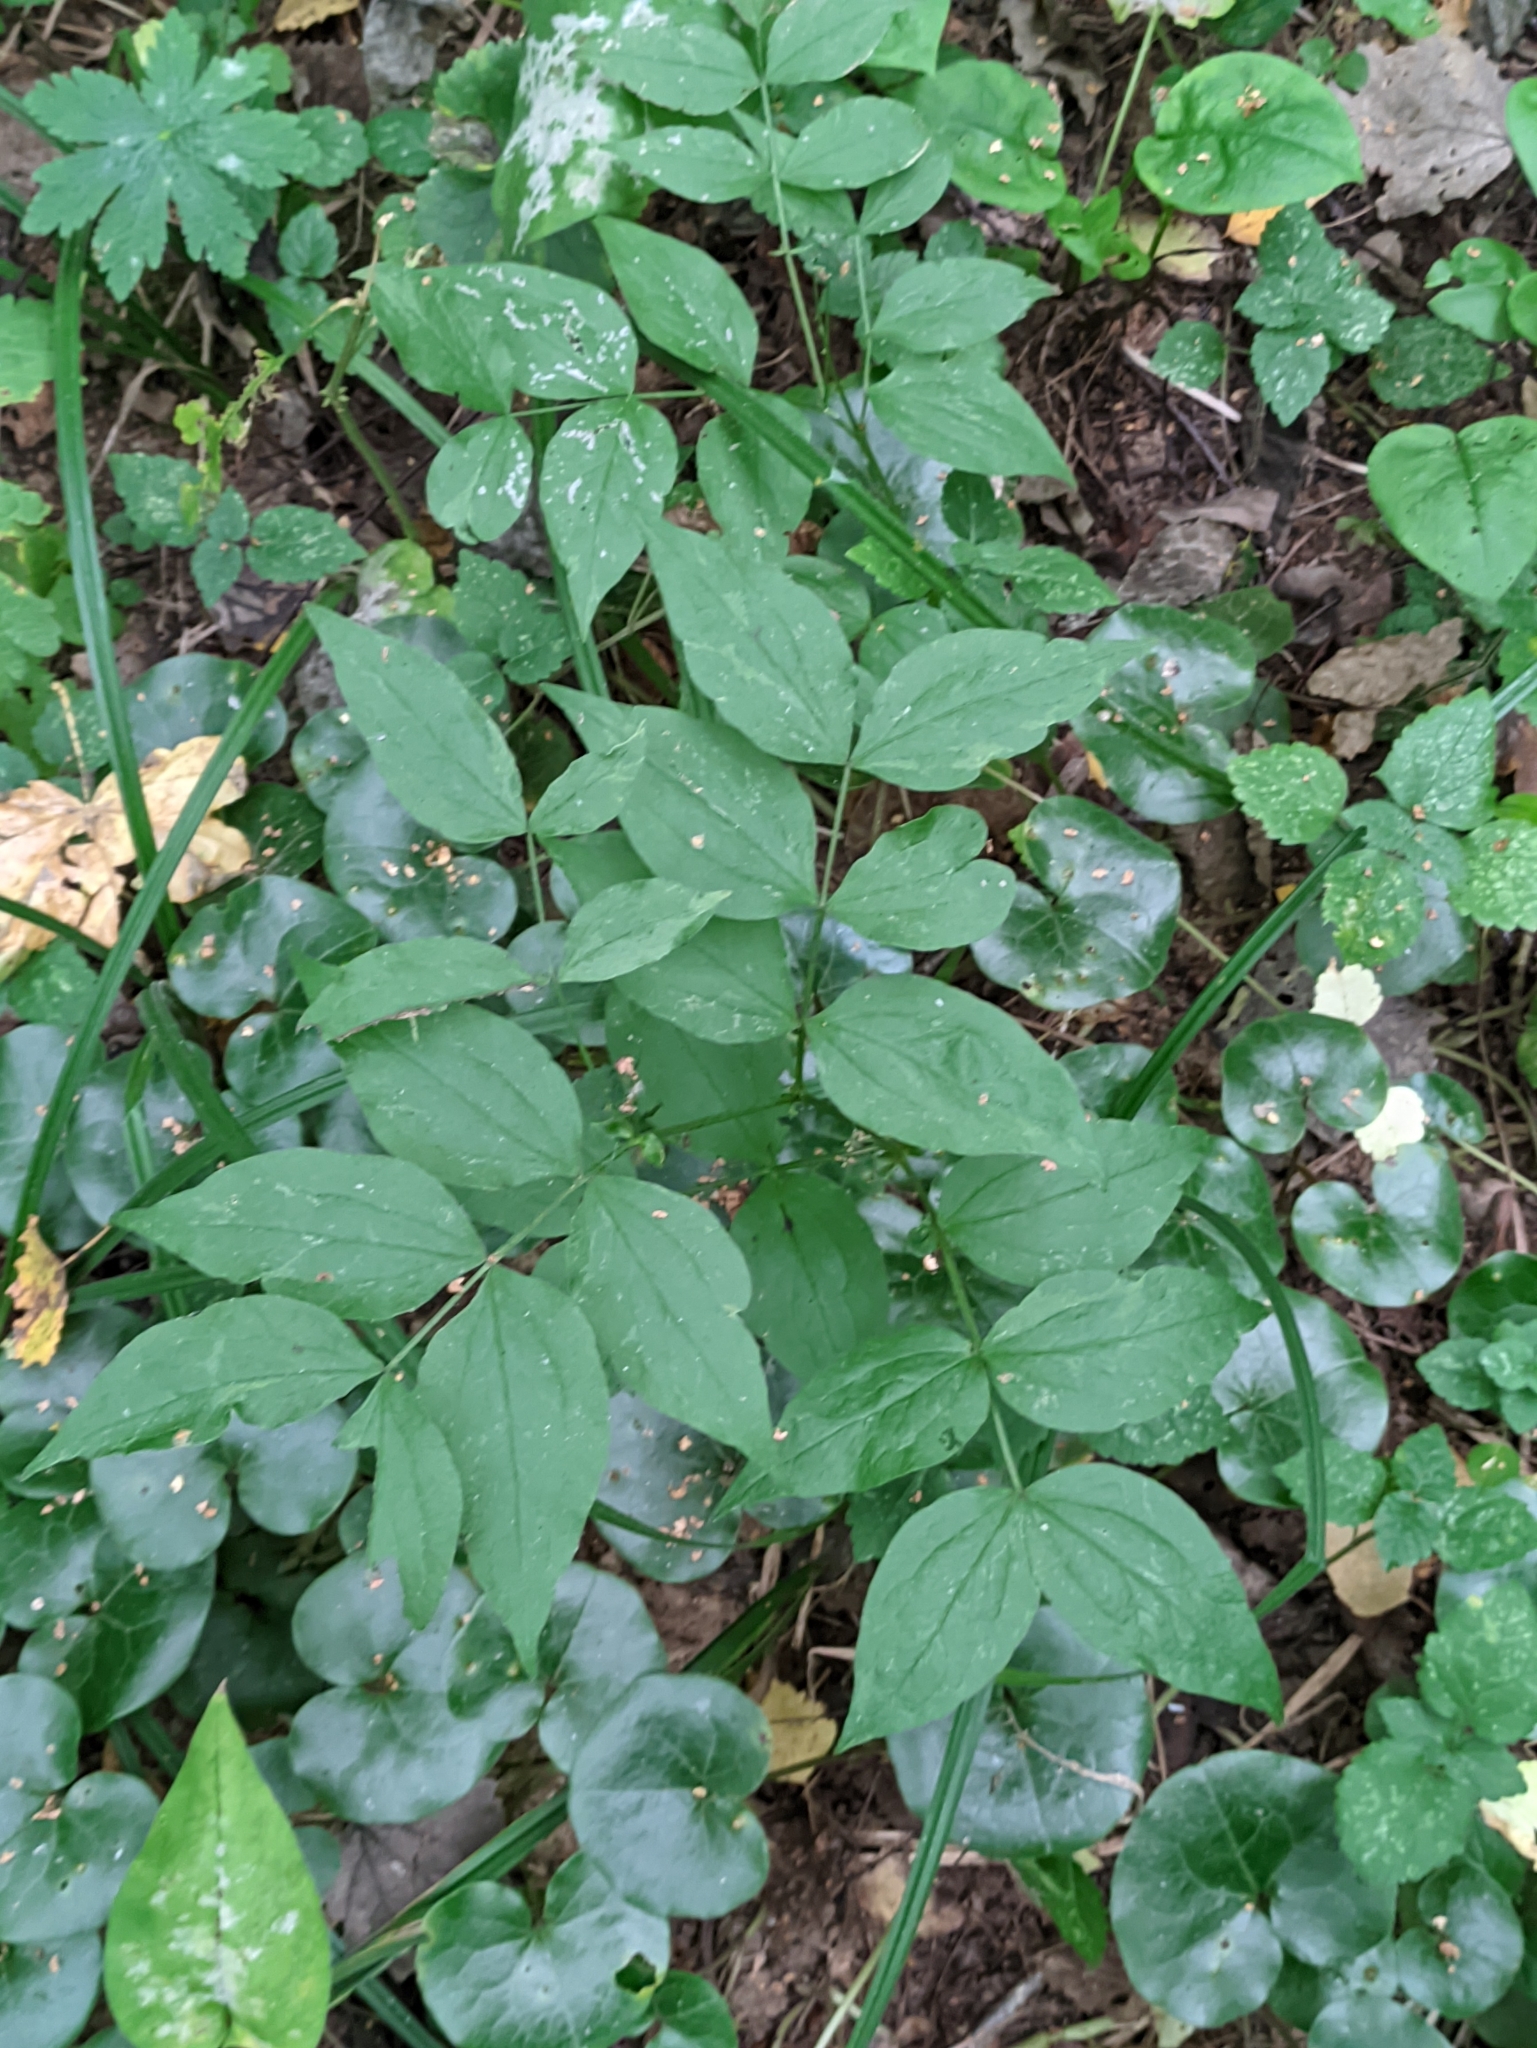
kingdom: Plantae
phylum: Tracheophyta
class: Magnoliopsida
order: Fabales
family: Fabaceae
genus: Lathyrus
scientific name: Lathyrus vernus
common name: Spring pea
